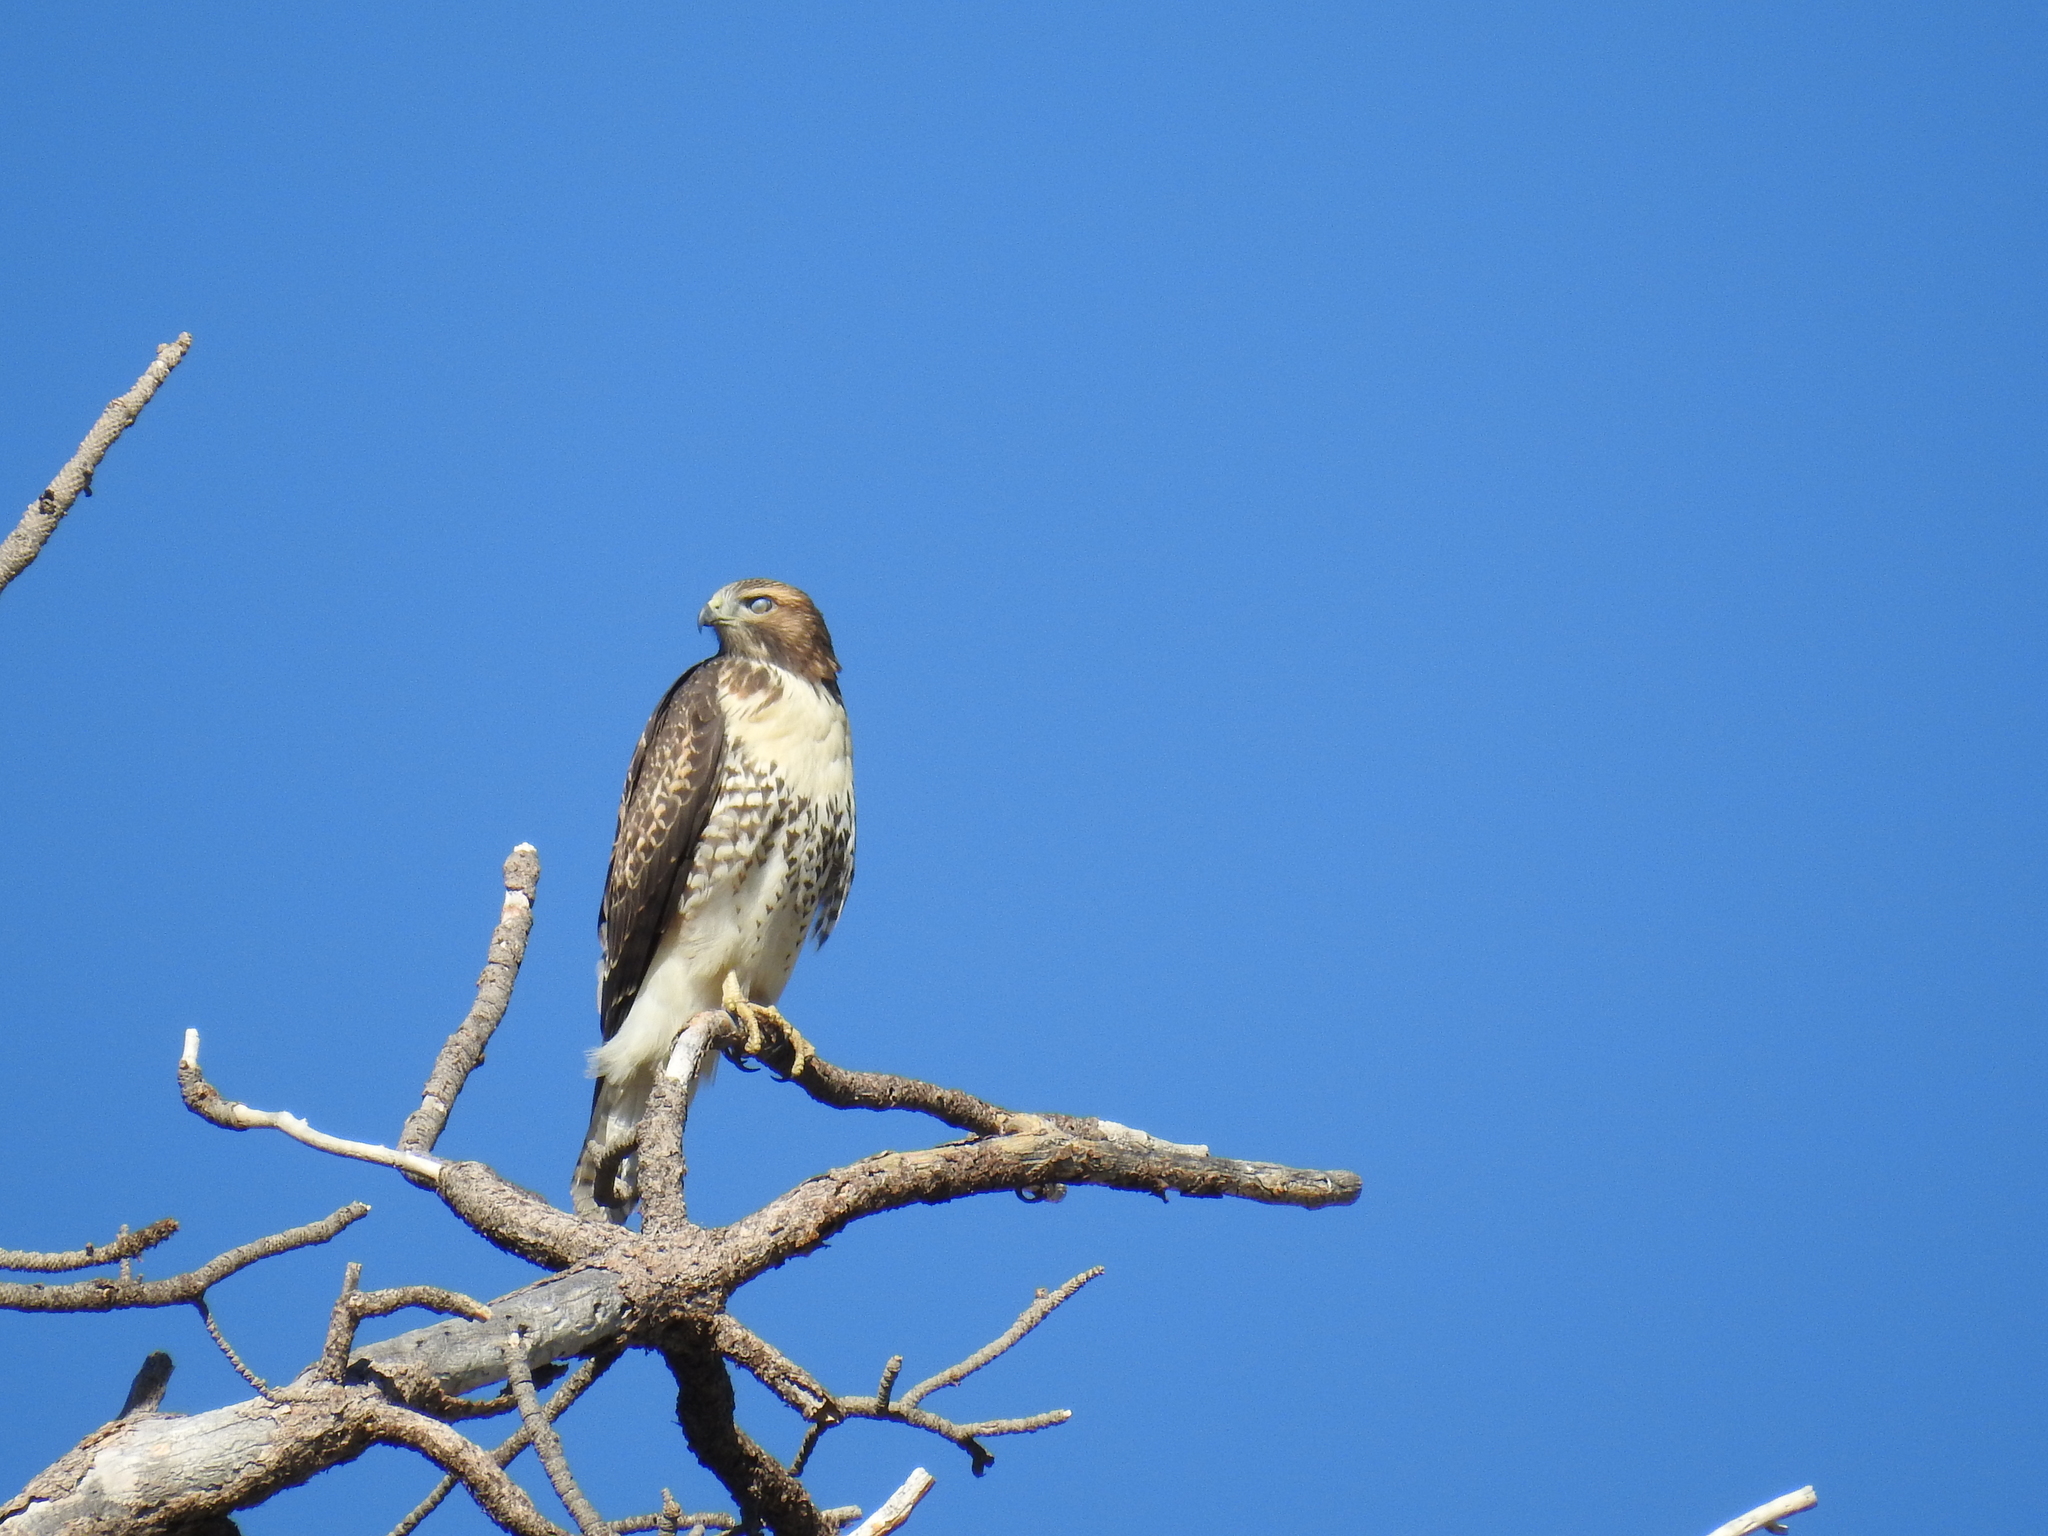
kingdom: Animalia
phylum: Chordata
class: Aves
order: Accipitriformes
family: Accipitridae
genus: Buteo
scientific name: Buteo jamaicensis
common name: Red-tailed hawk
